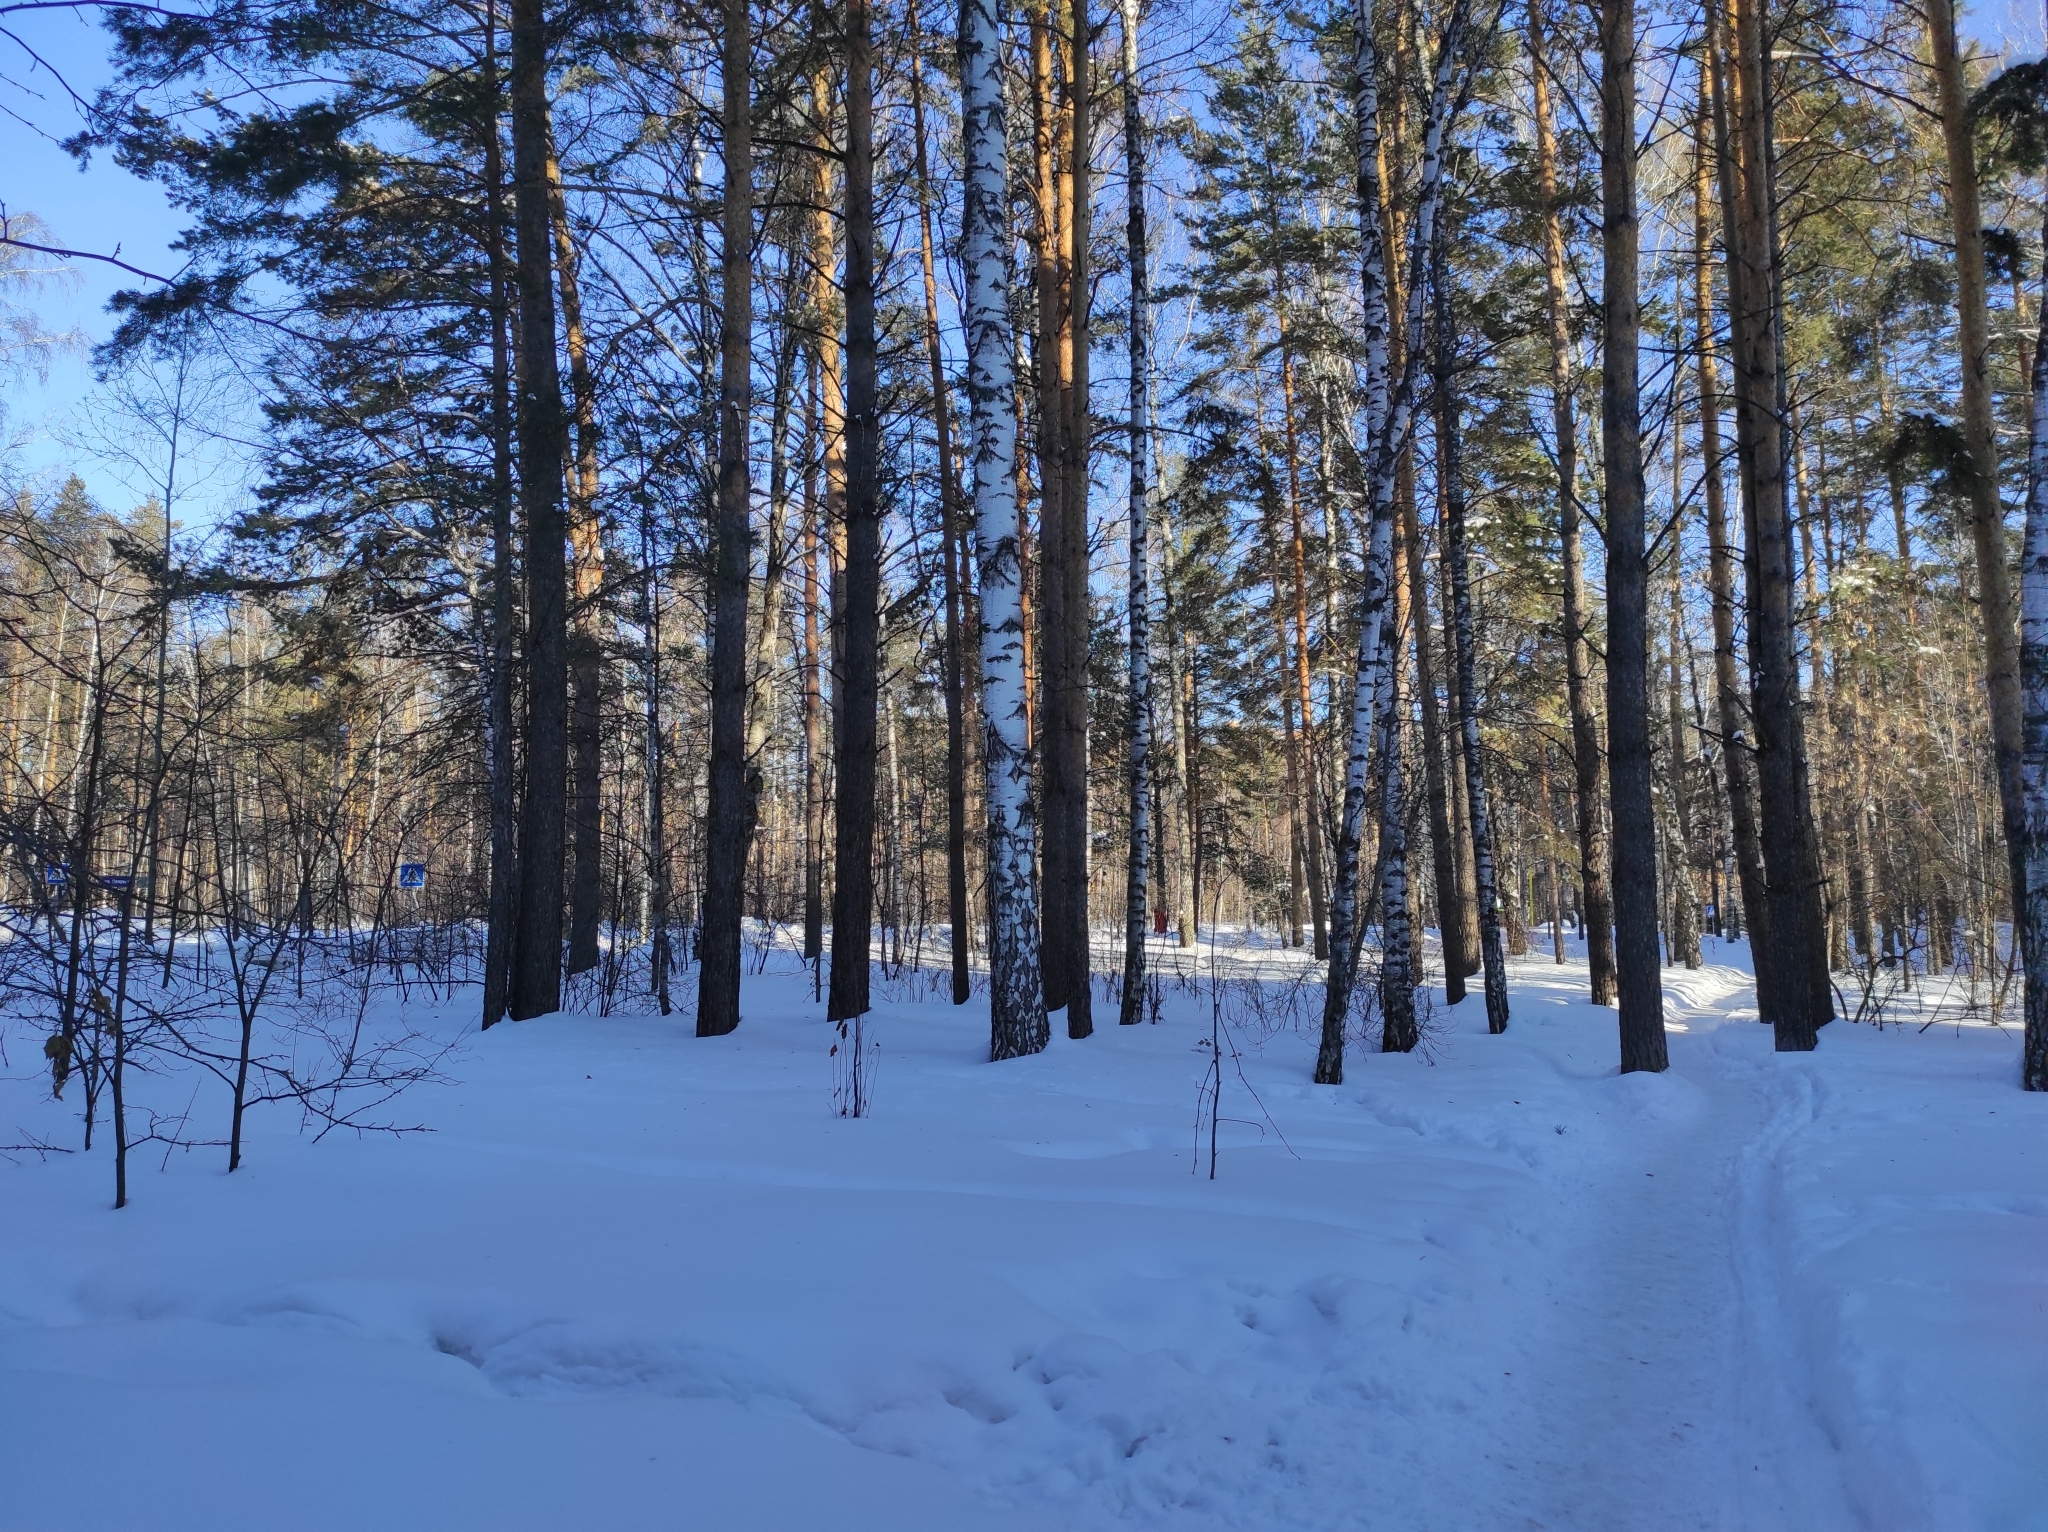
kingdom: Plantae
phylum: Tracheophyta
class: Pinopsida
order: Pinales
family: Pinaceae
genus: Pinus
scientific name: Pinus sylvestris
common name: Scots pine
